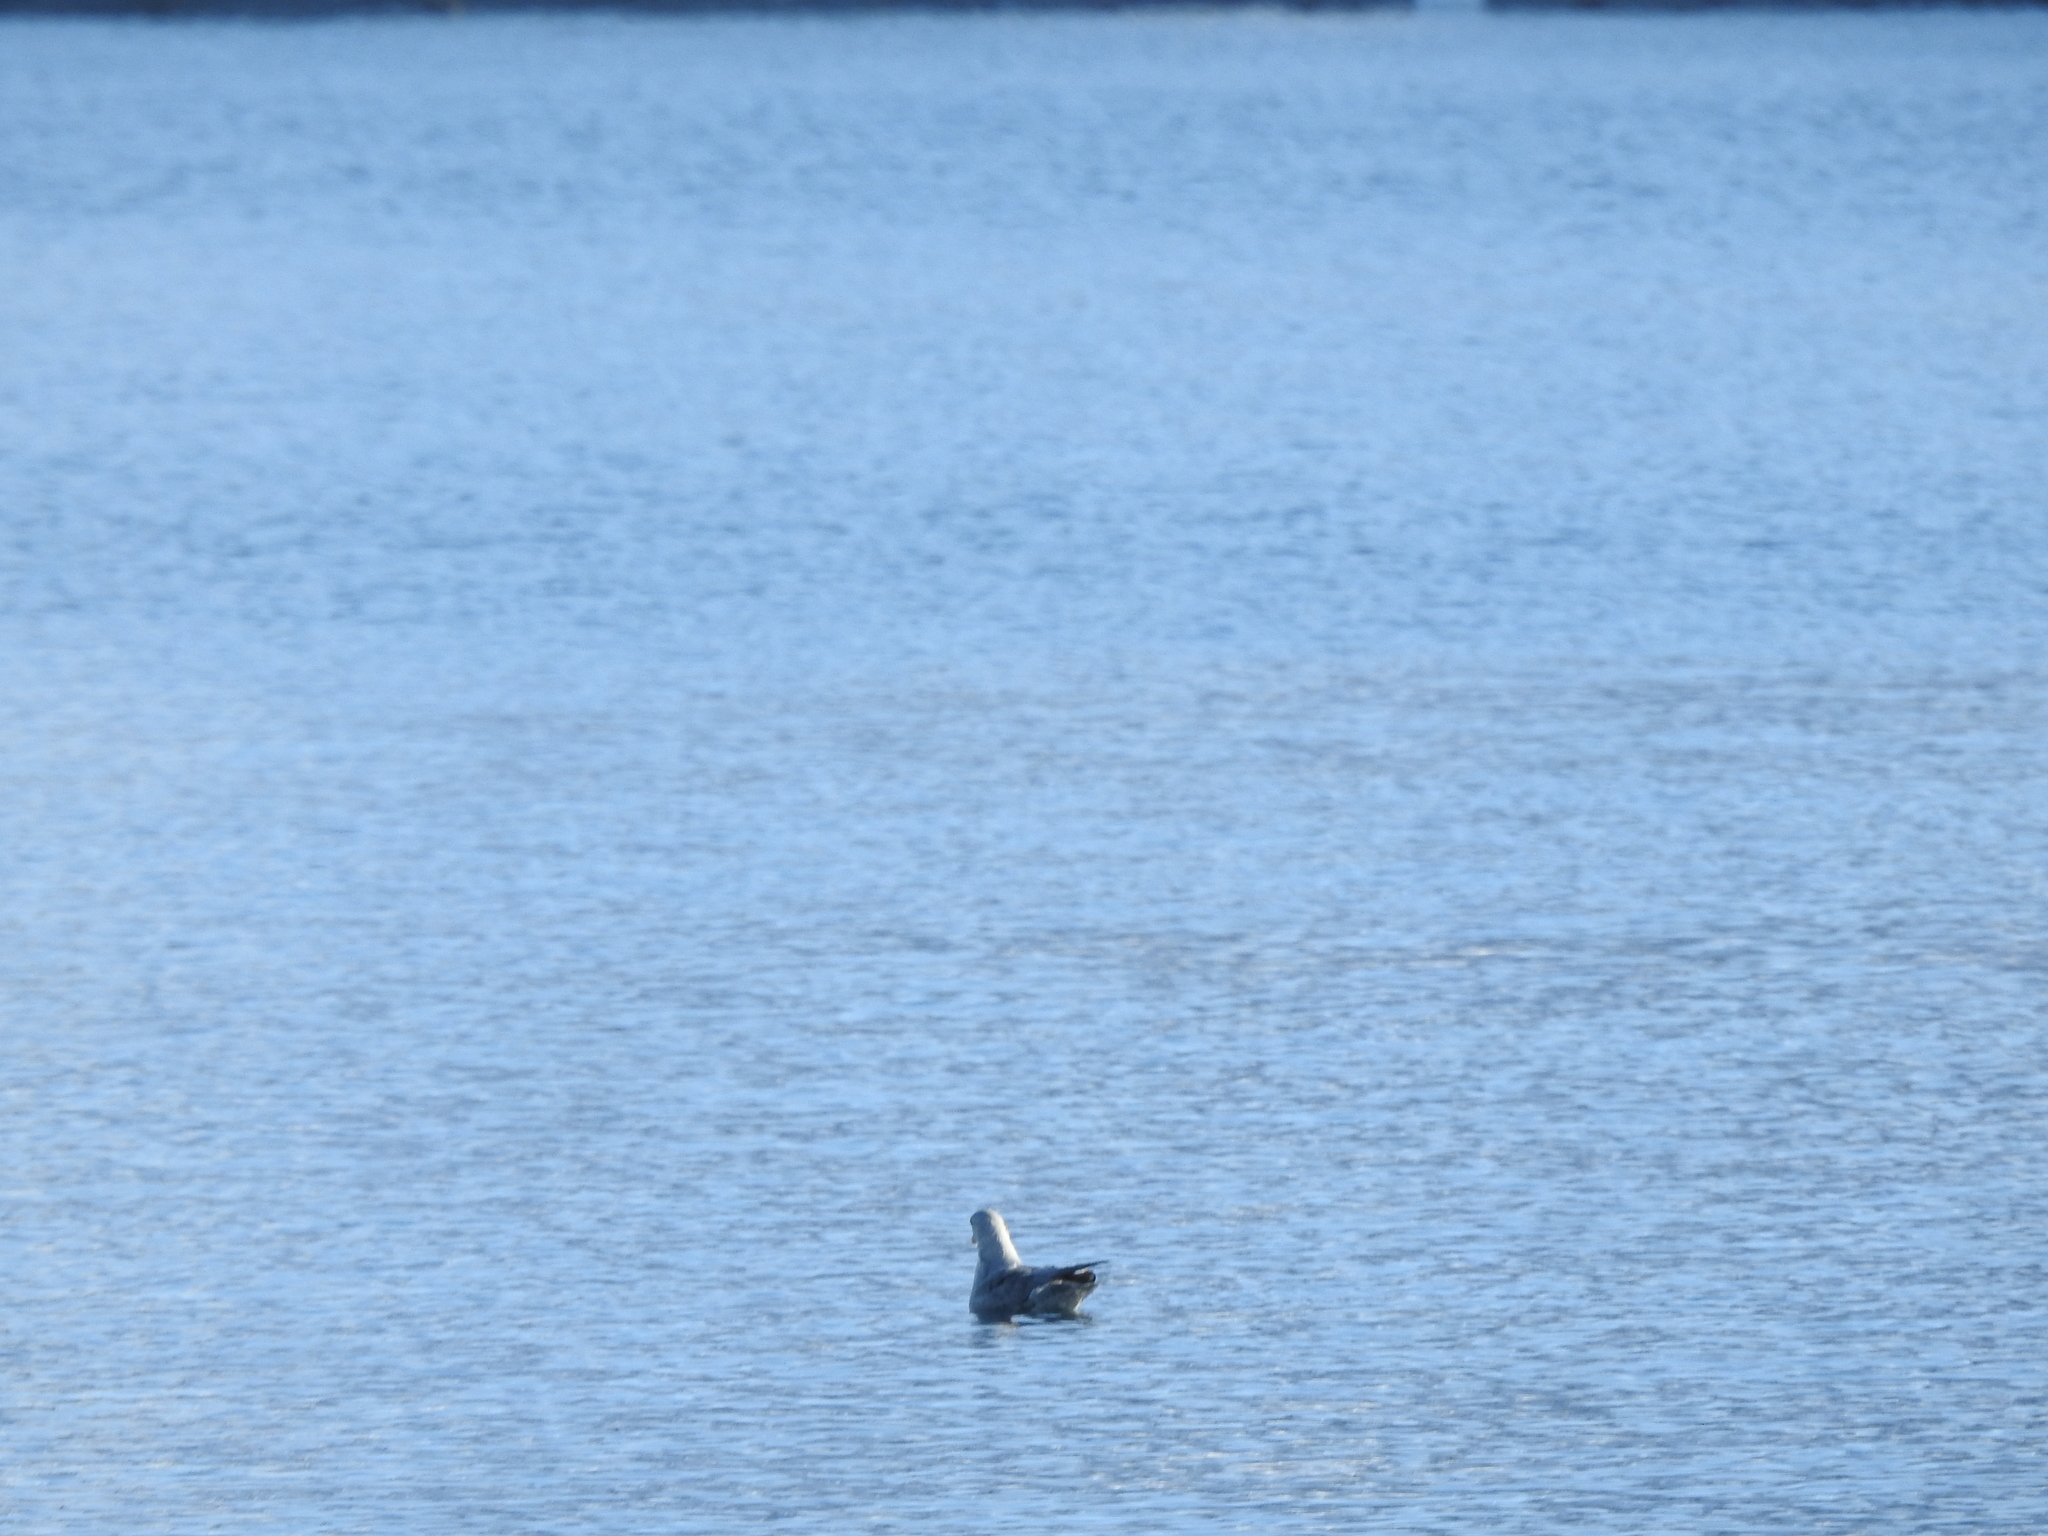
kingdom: Animalia
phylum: Chordata
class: Aves
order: Procellariiformes
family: Procellariidae
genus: Fulmarus
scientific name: Fulmarus glacialis
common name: Northern fulmar
